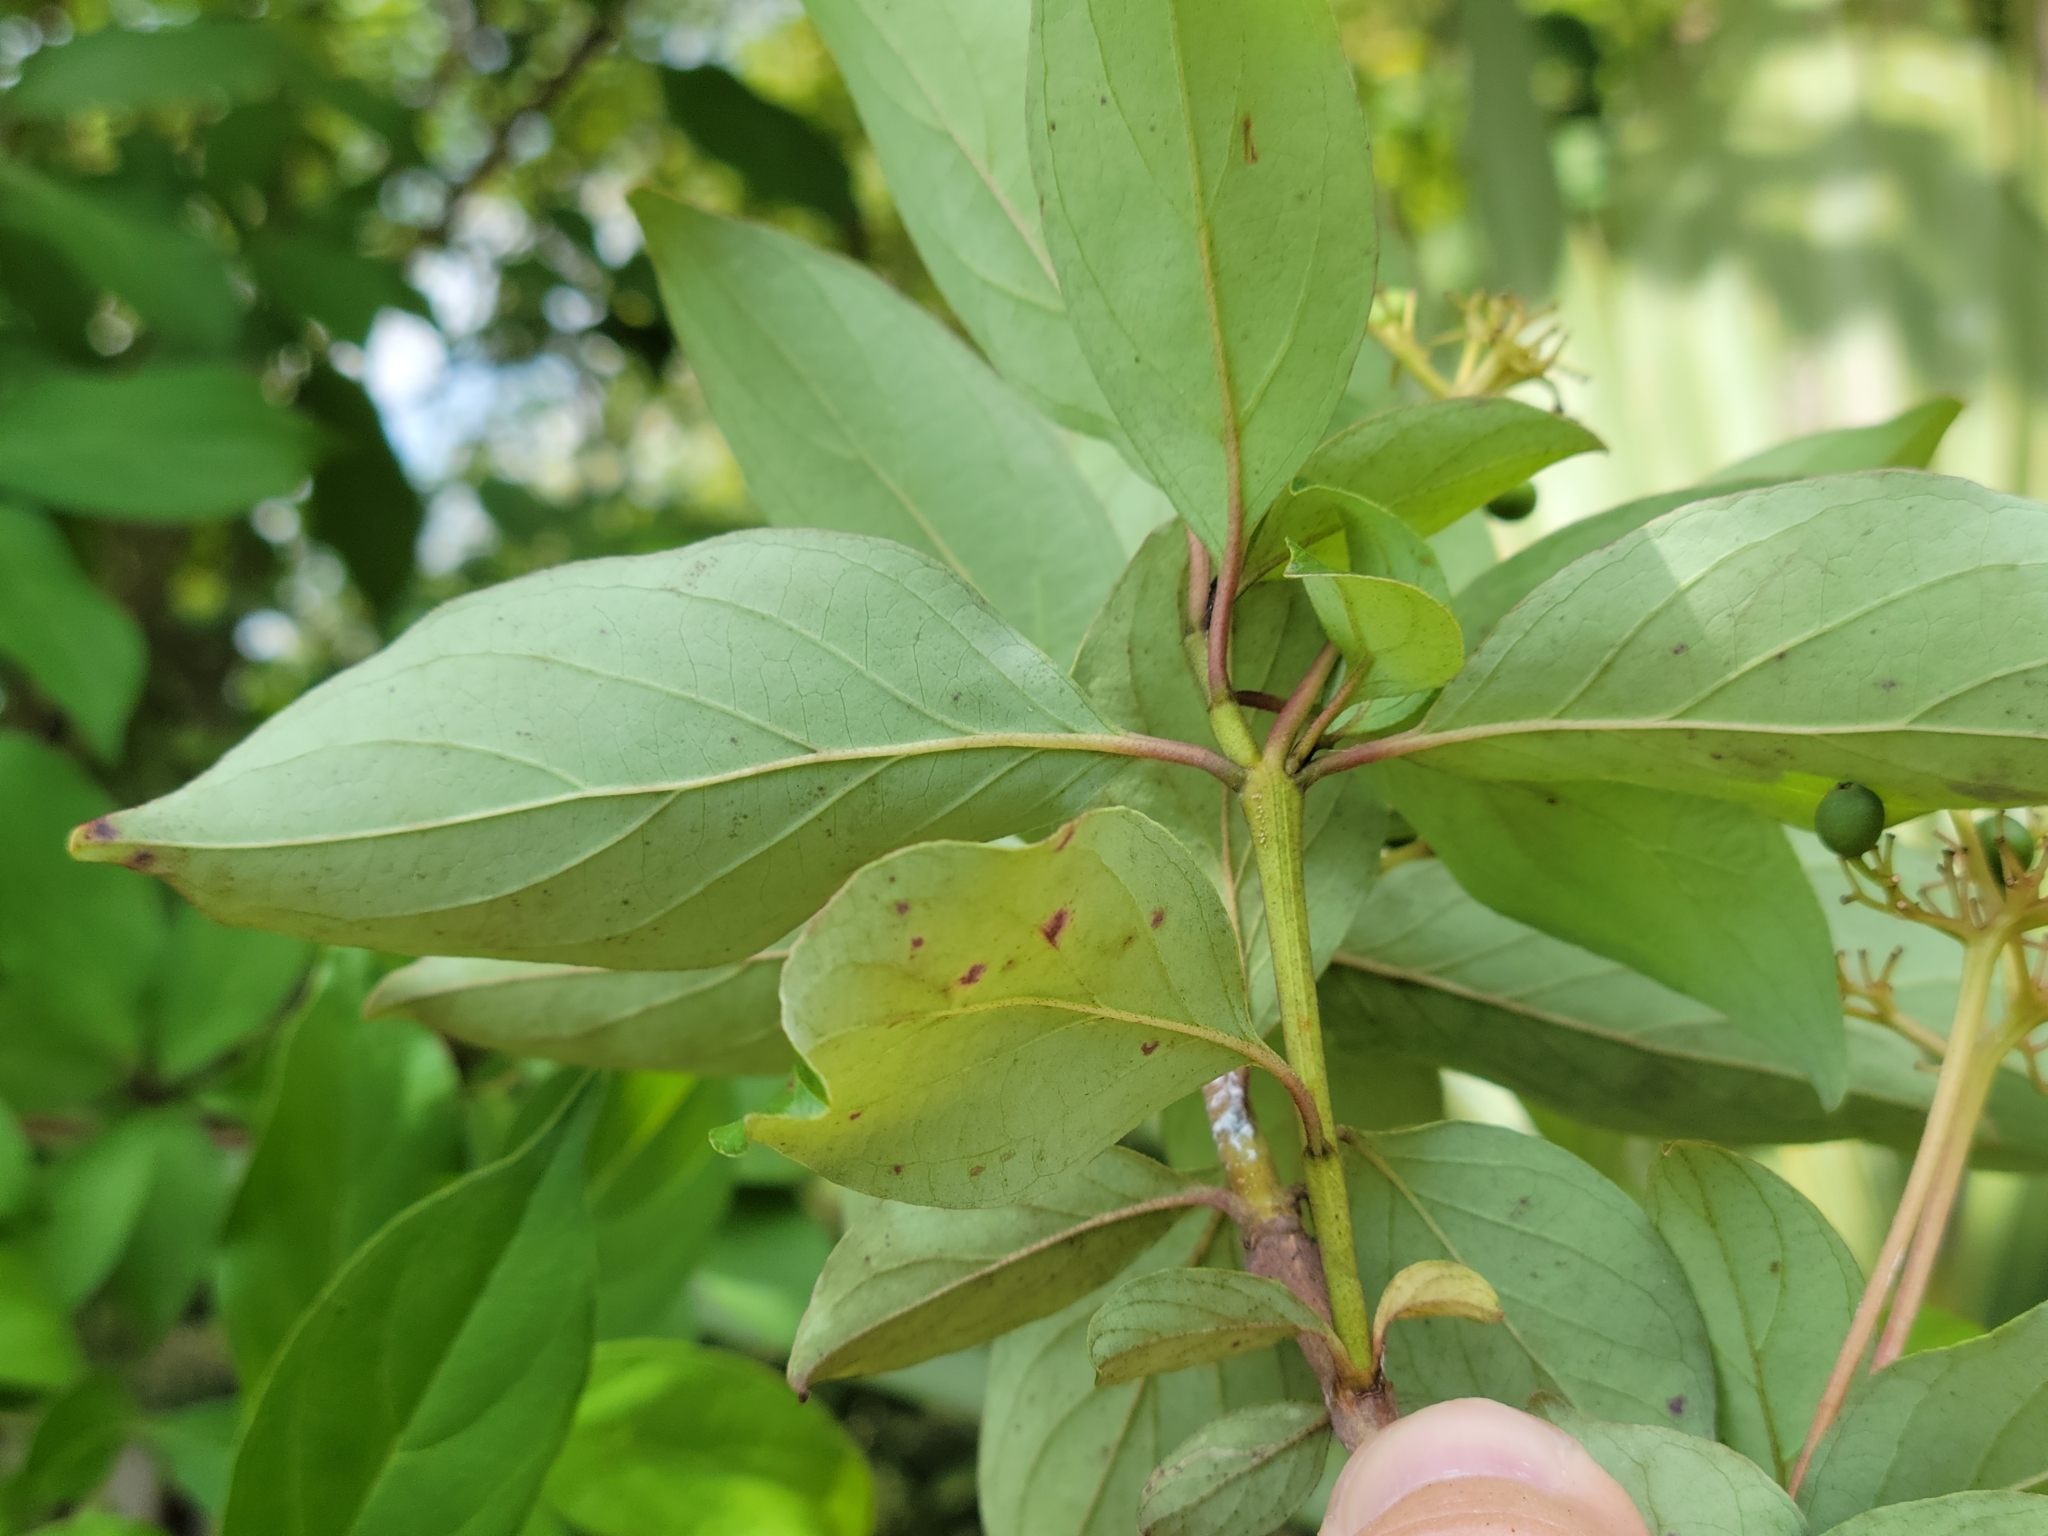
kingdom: Plantae
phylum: Tracheophyta
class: Magnoliopsida
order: Cornales
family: Cornaceae
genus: Cornus
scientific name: Cornus foemina
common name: Swamp dogwood
